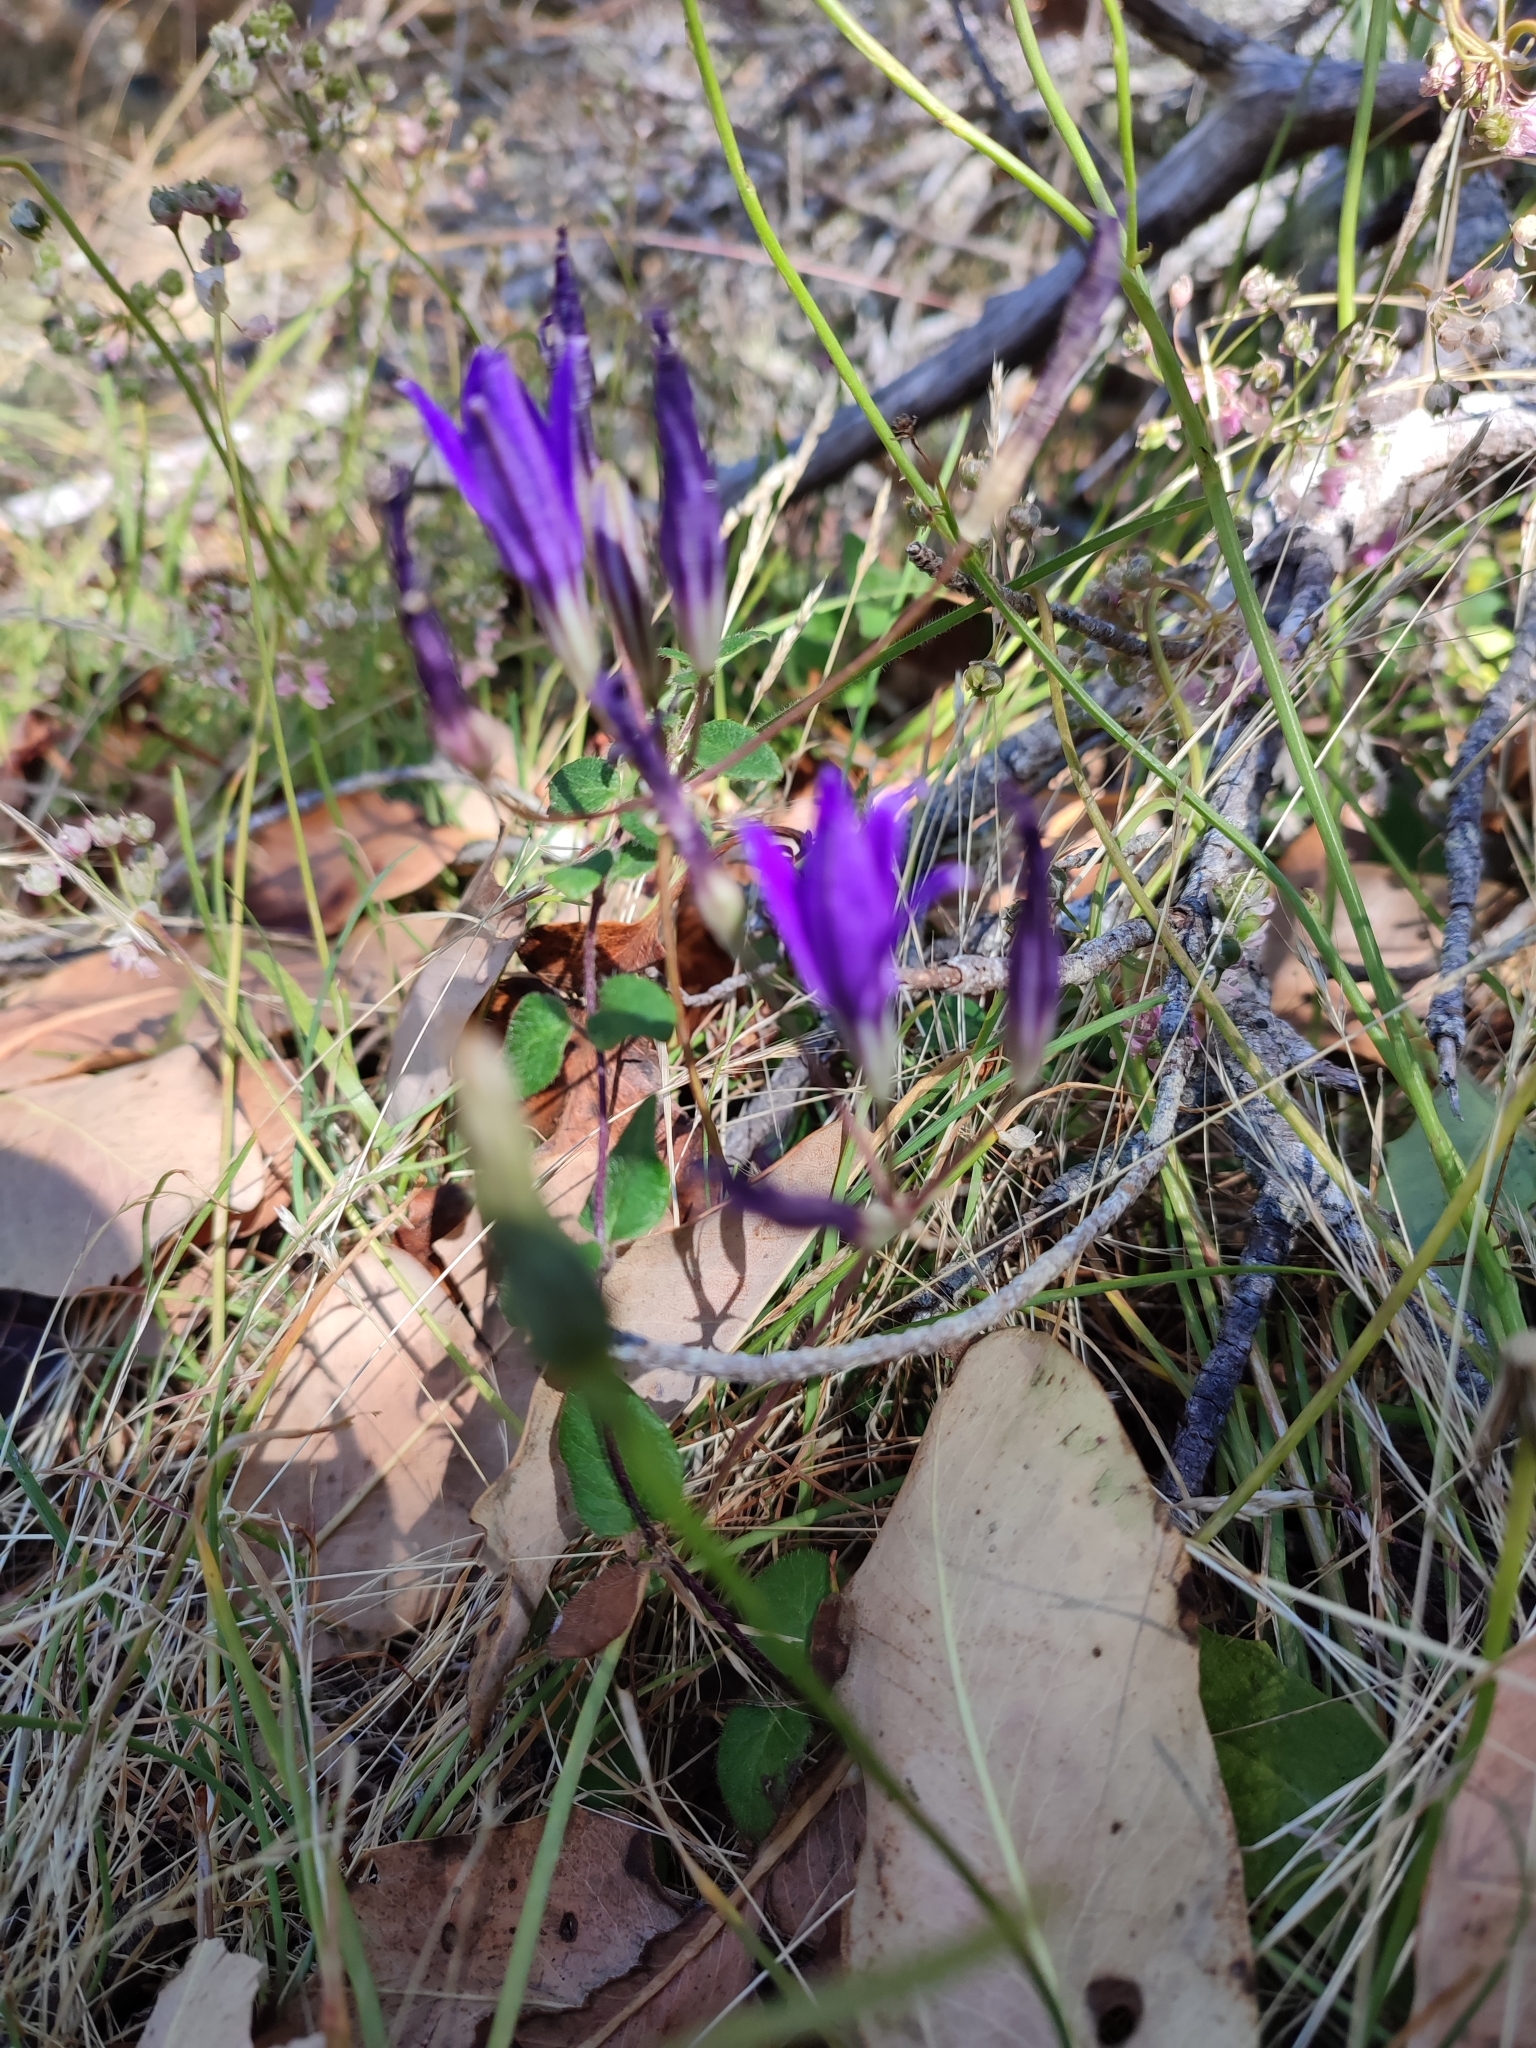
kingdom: Plantae
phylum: Tracheophyta
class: Liliopsida
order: Asparagales
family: Asparagaceae
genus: Brodiaea
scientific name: Brodiaea coronaria
